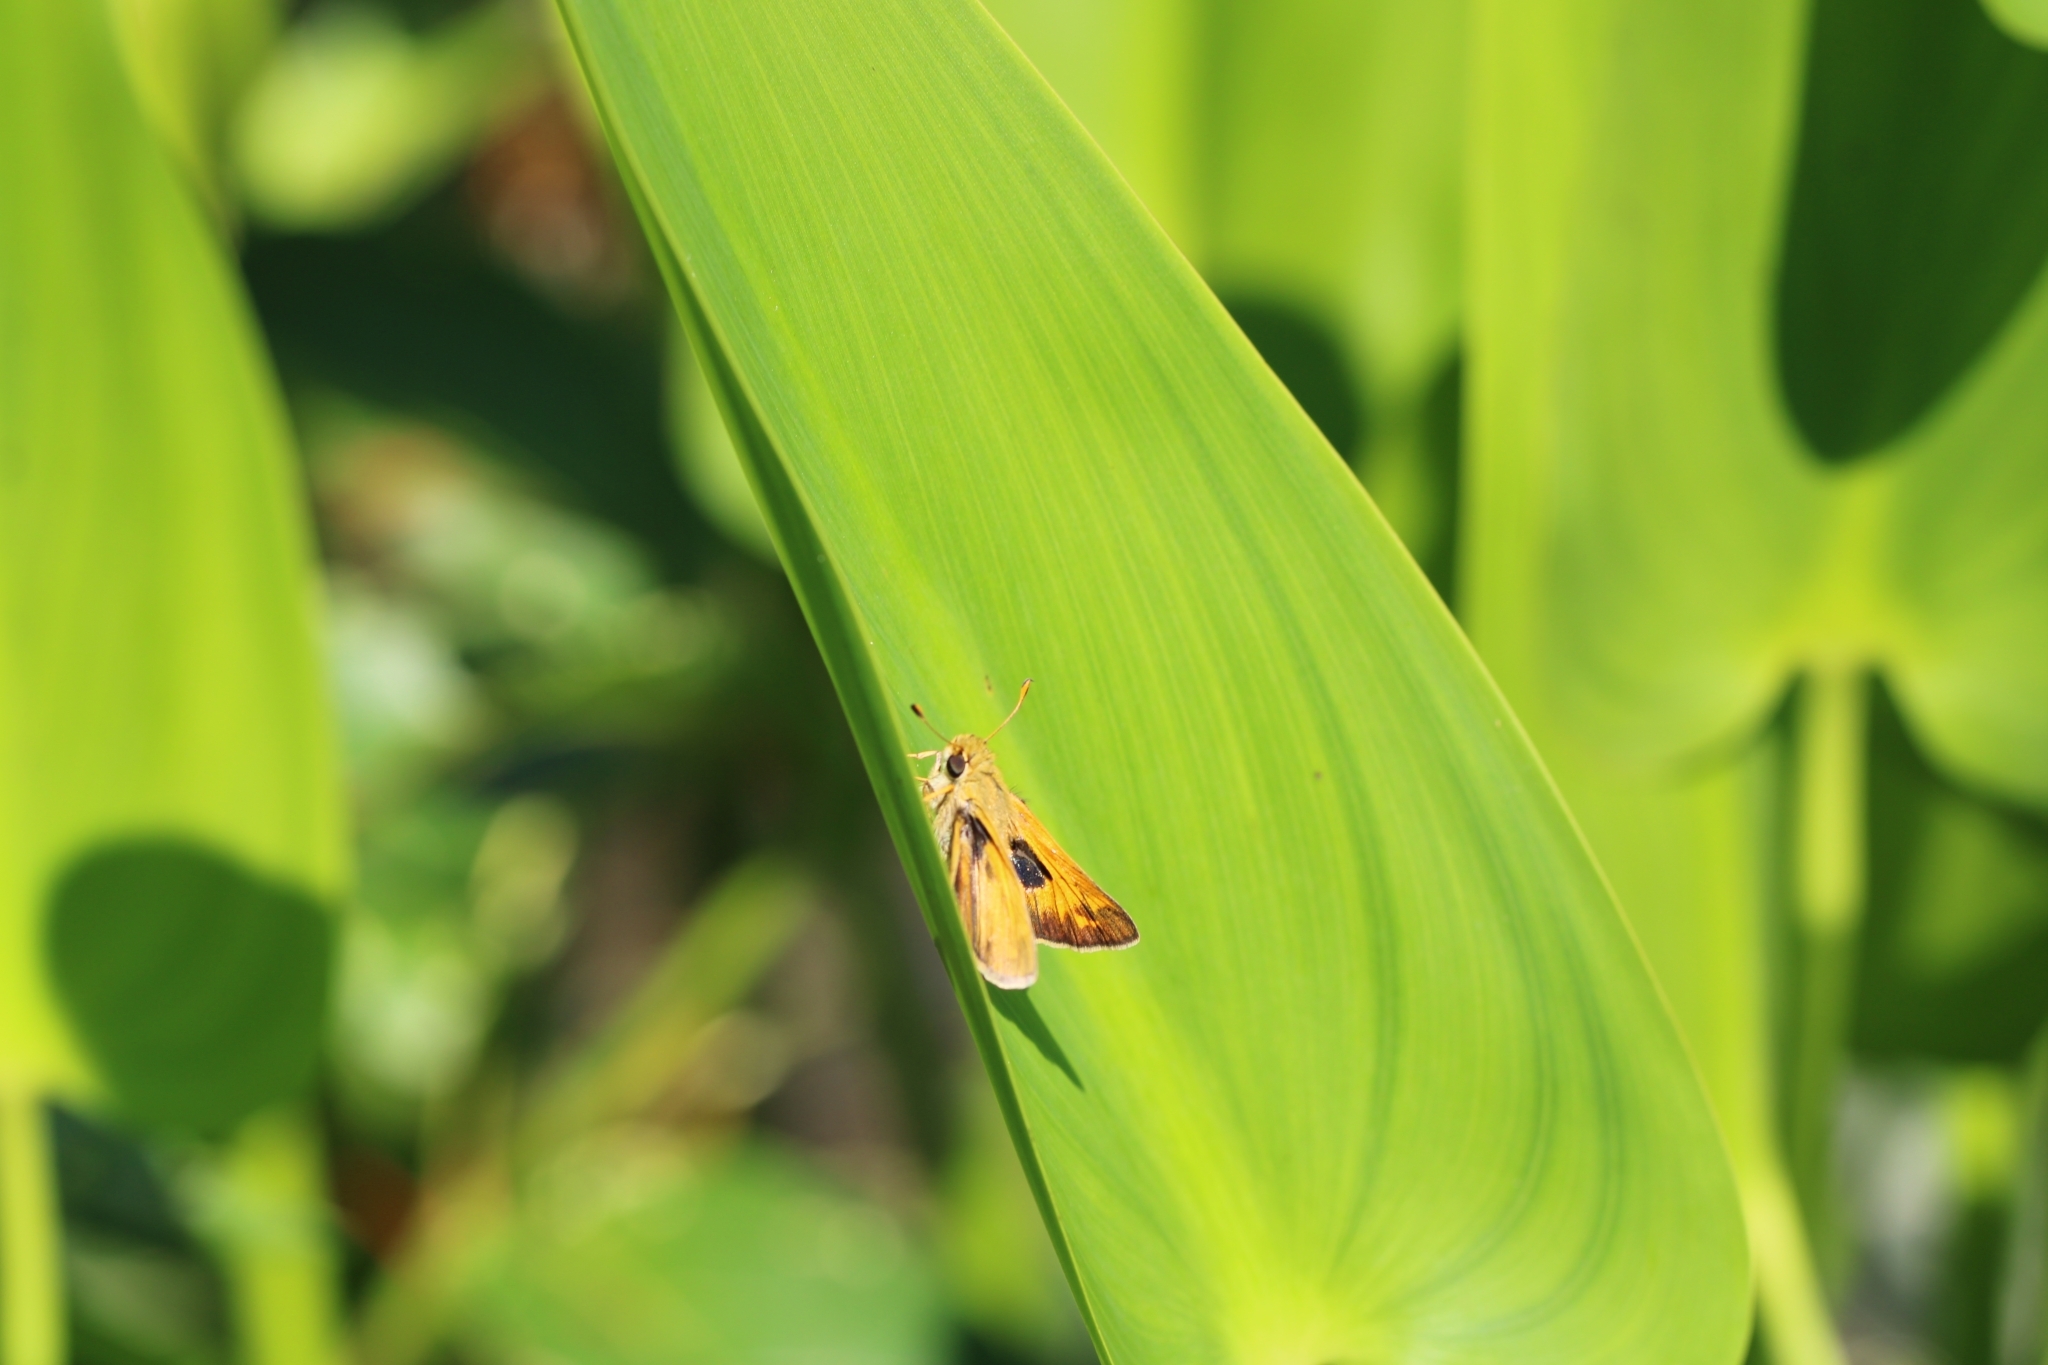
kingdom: Animalia
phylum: Arthropoda
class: Insecta
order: Lepidoptera
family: Hesperiidae
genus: Atalopedes
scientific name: Atalopedes
